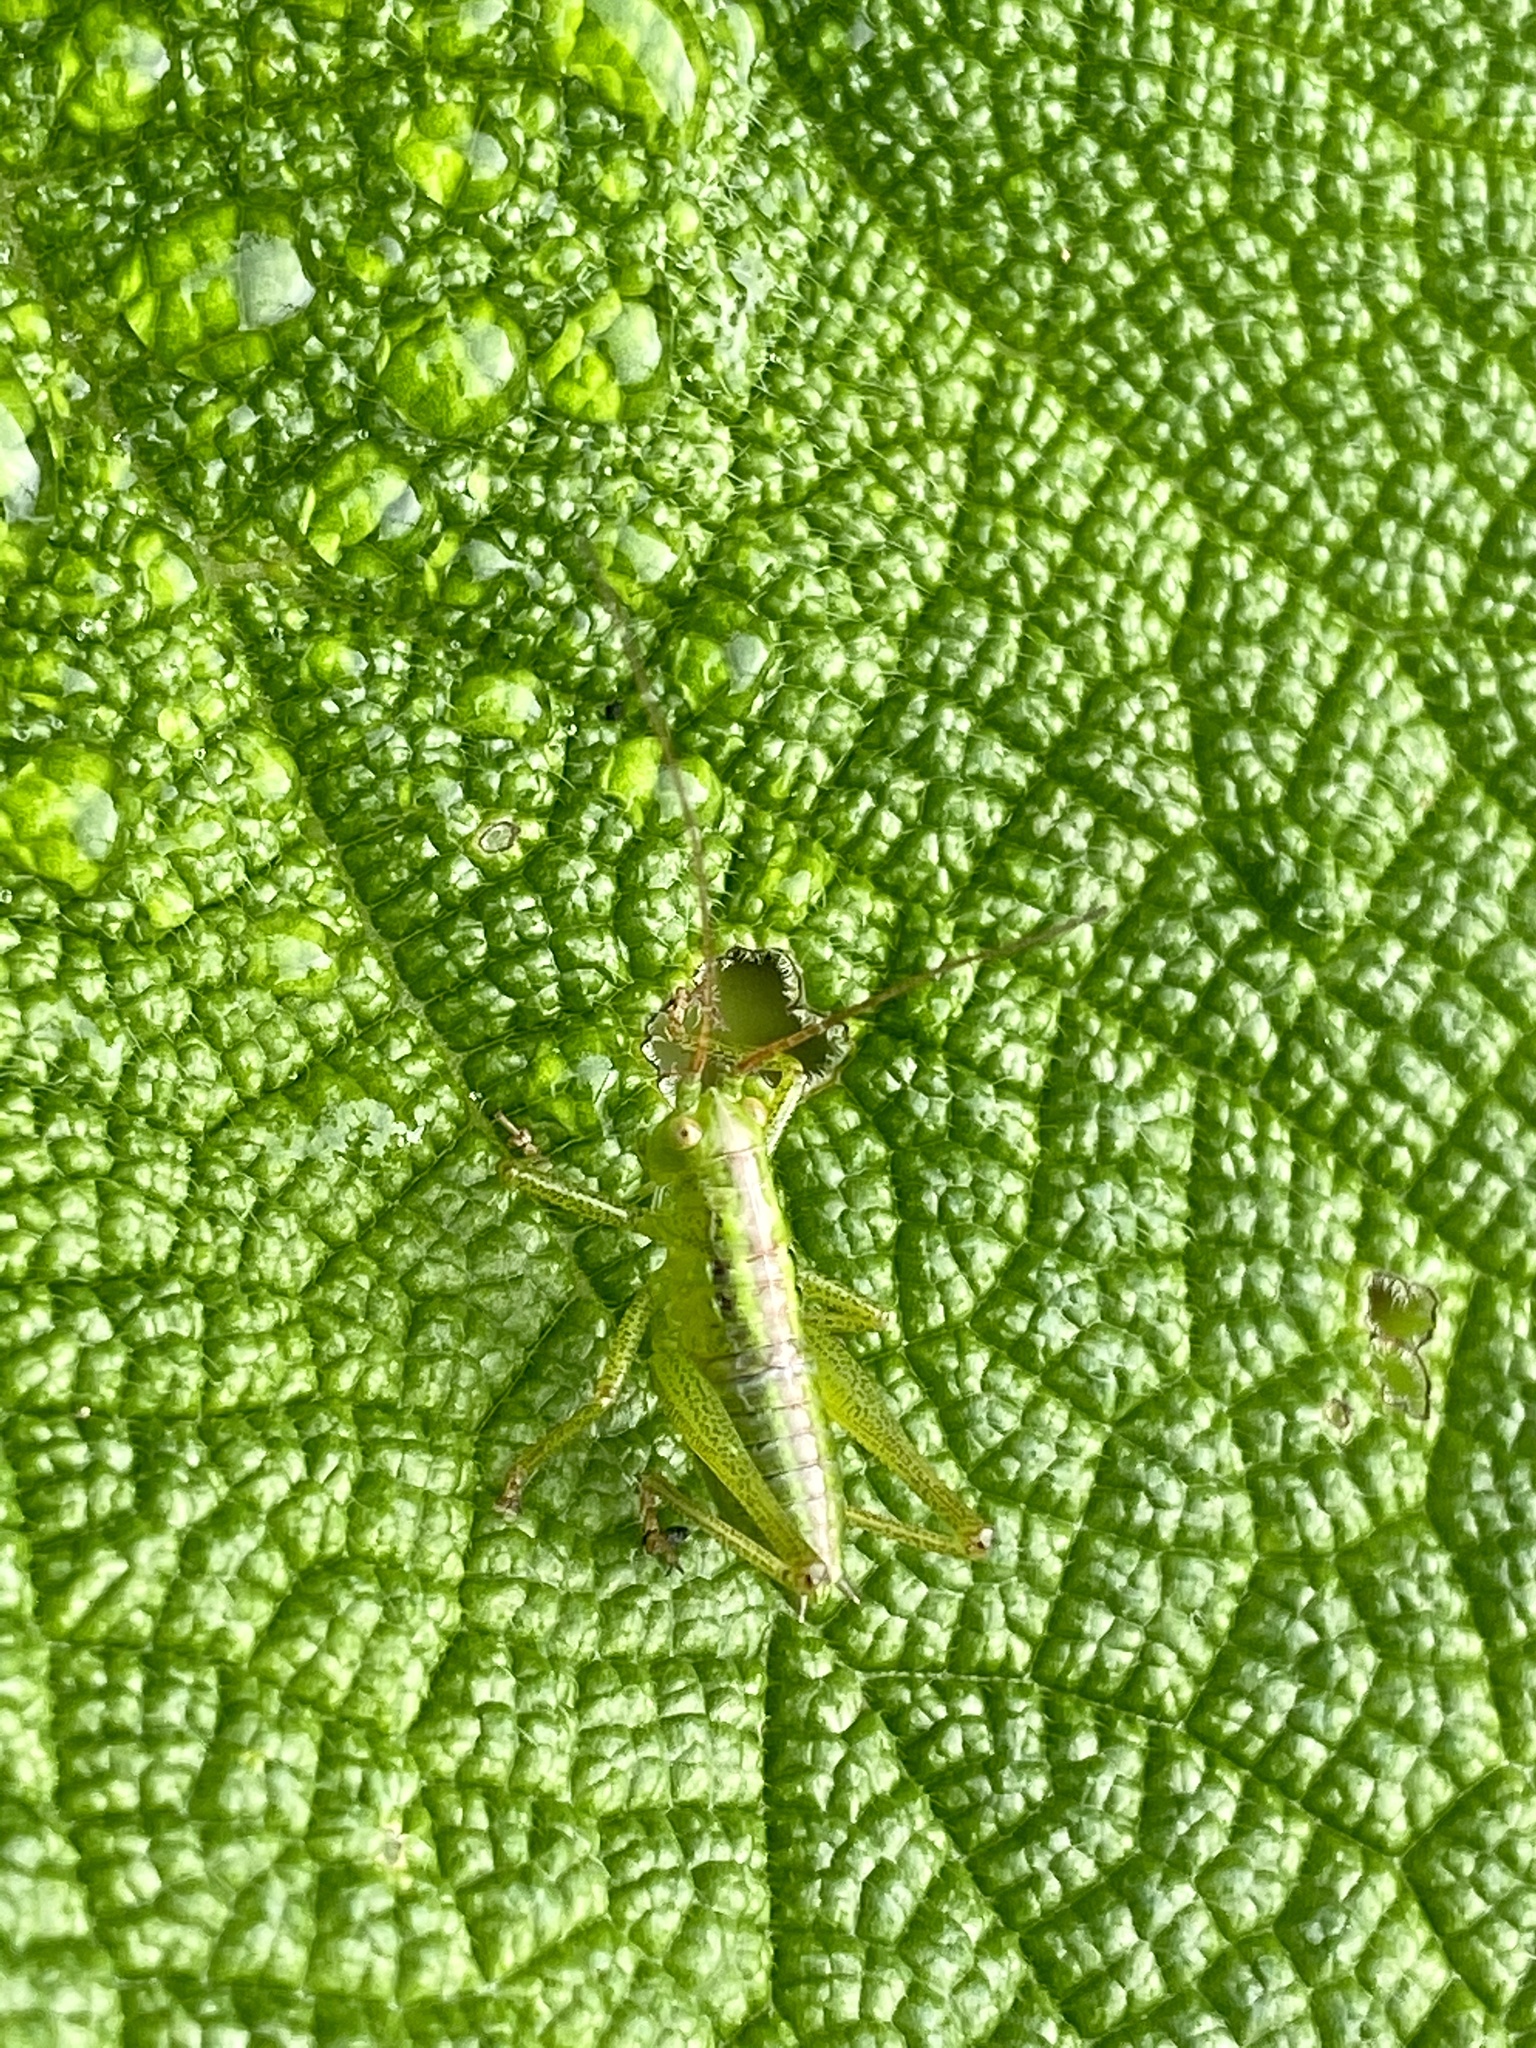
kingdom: Animalia
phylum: Arthropoda
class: Insecta
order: Orthoptera
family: Tettigoniidae
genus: Tettigonia
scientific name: Tettigonia orientalis
